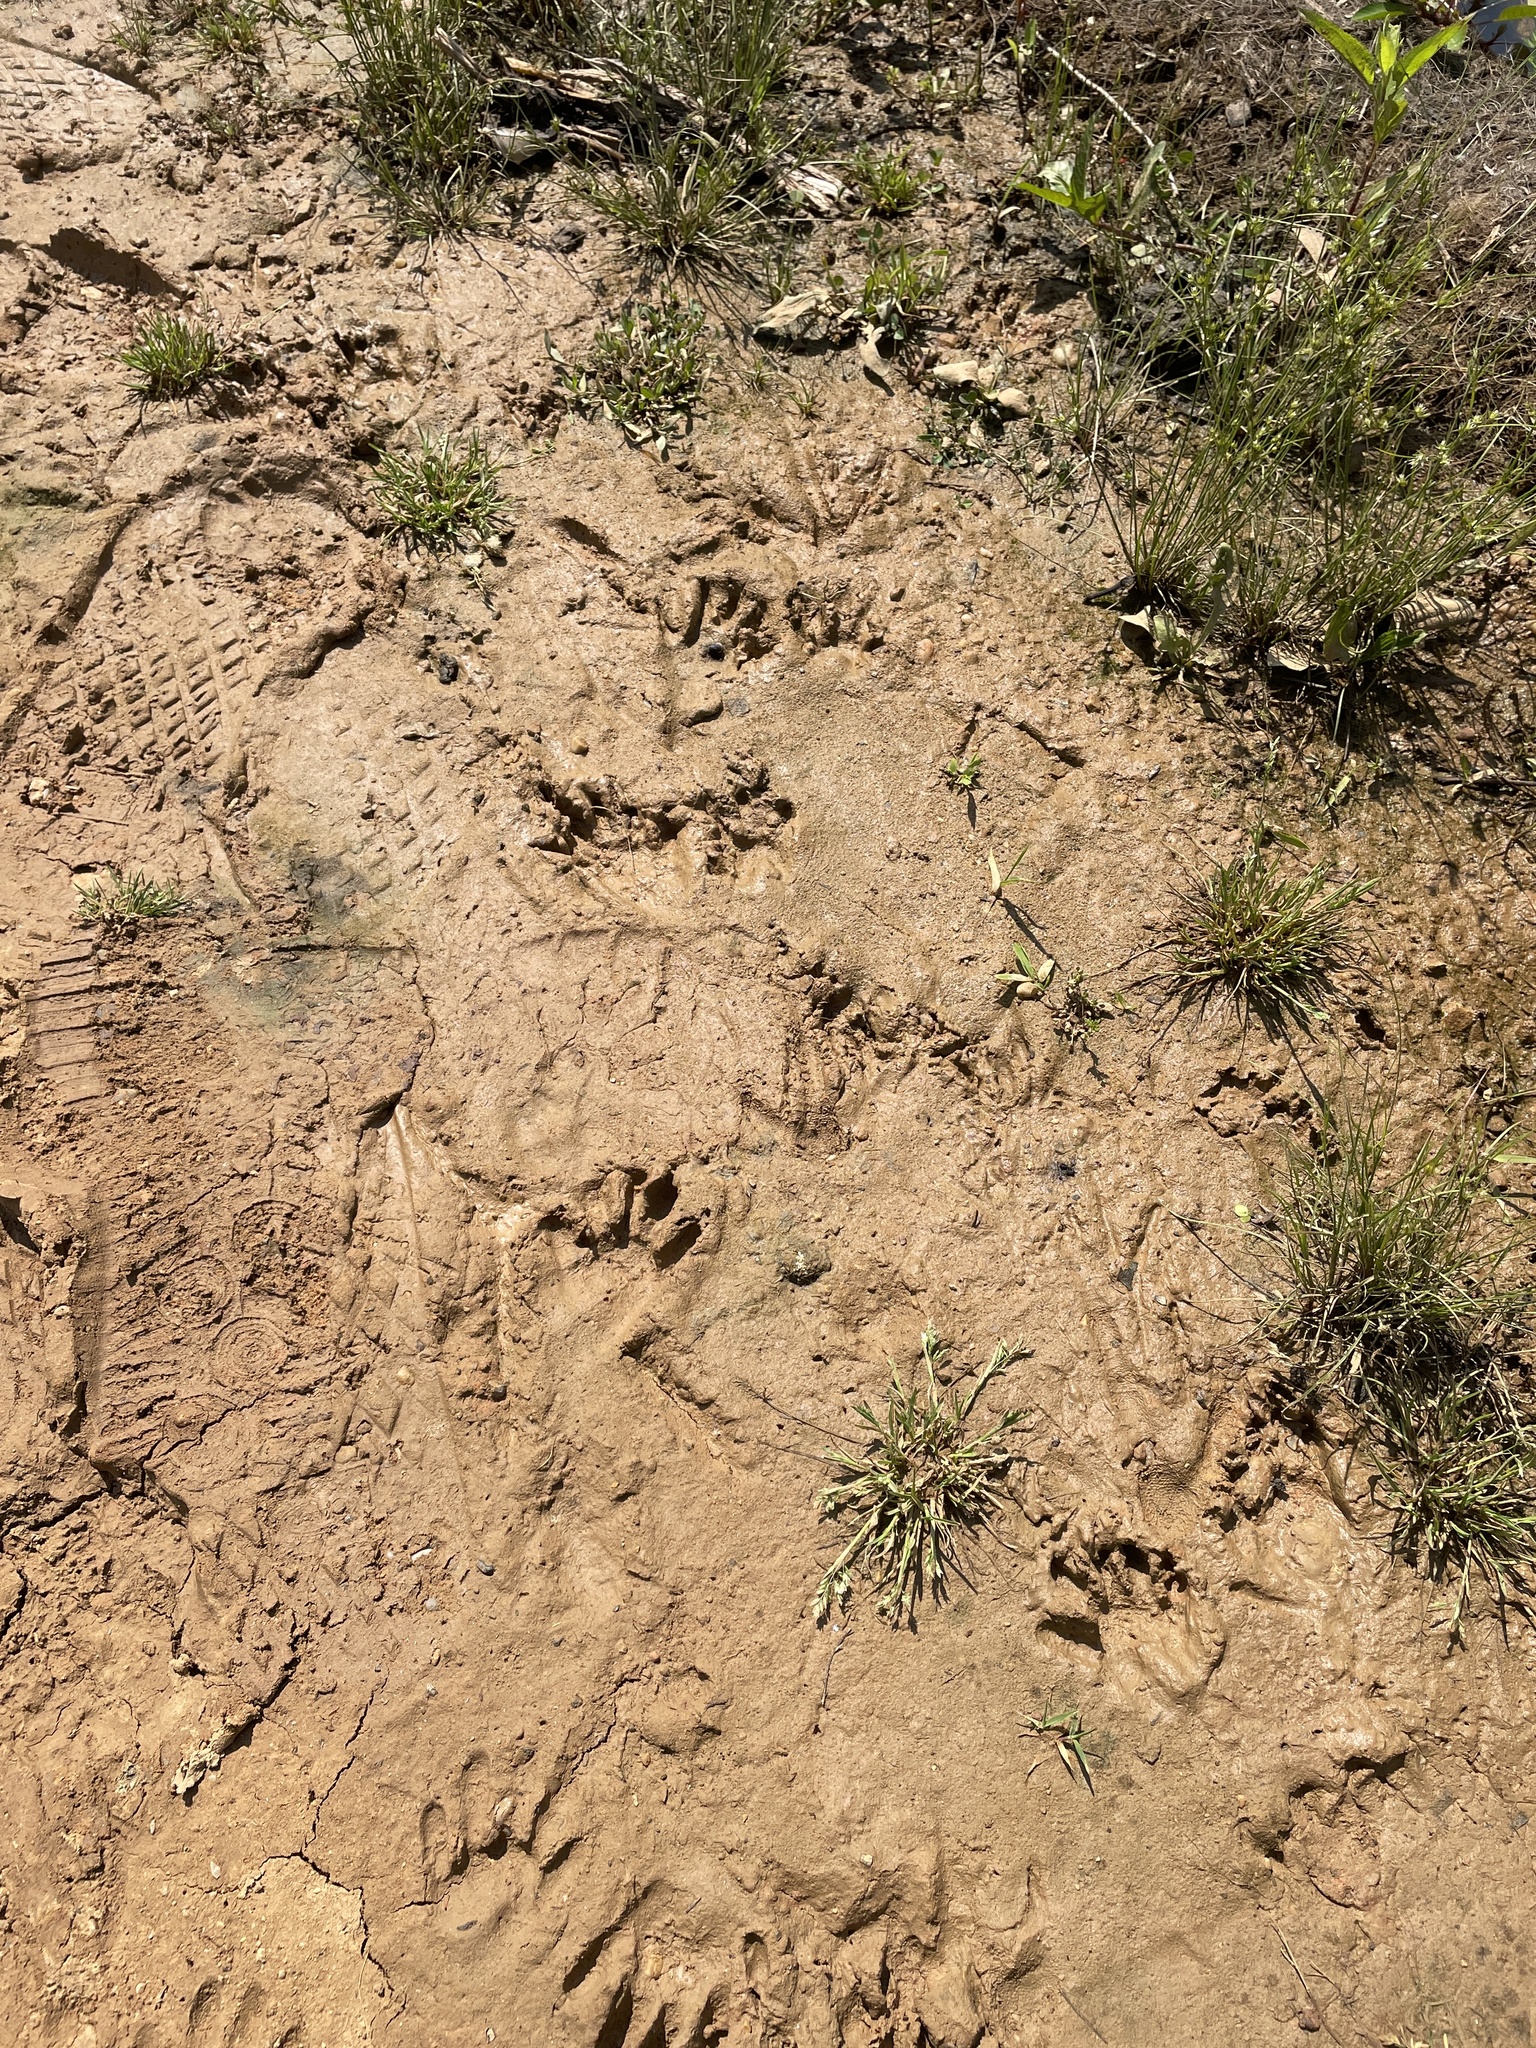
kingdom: Animalia
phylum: Chordata
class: Mammalia
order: Carnivora
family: Procyonidae
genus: Procyon
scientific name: Procyon lotor
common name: Raccoon
